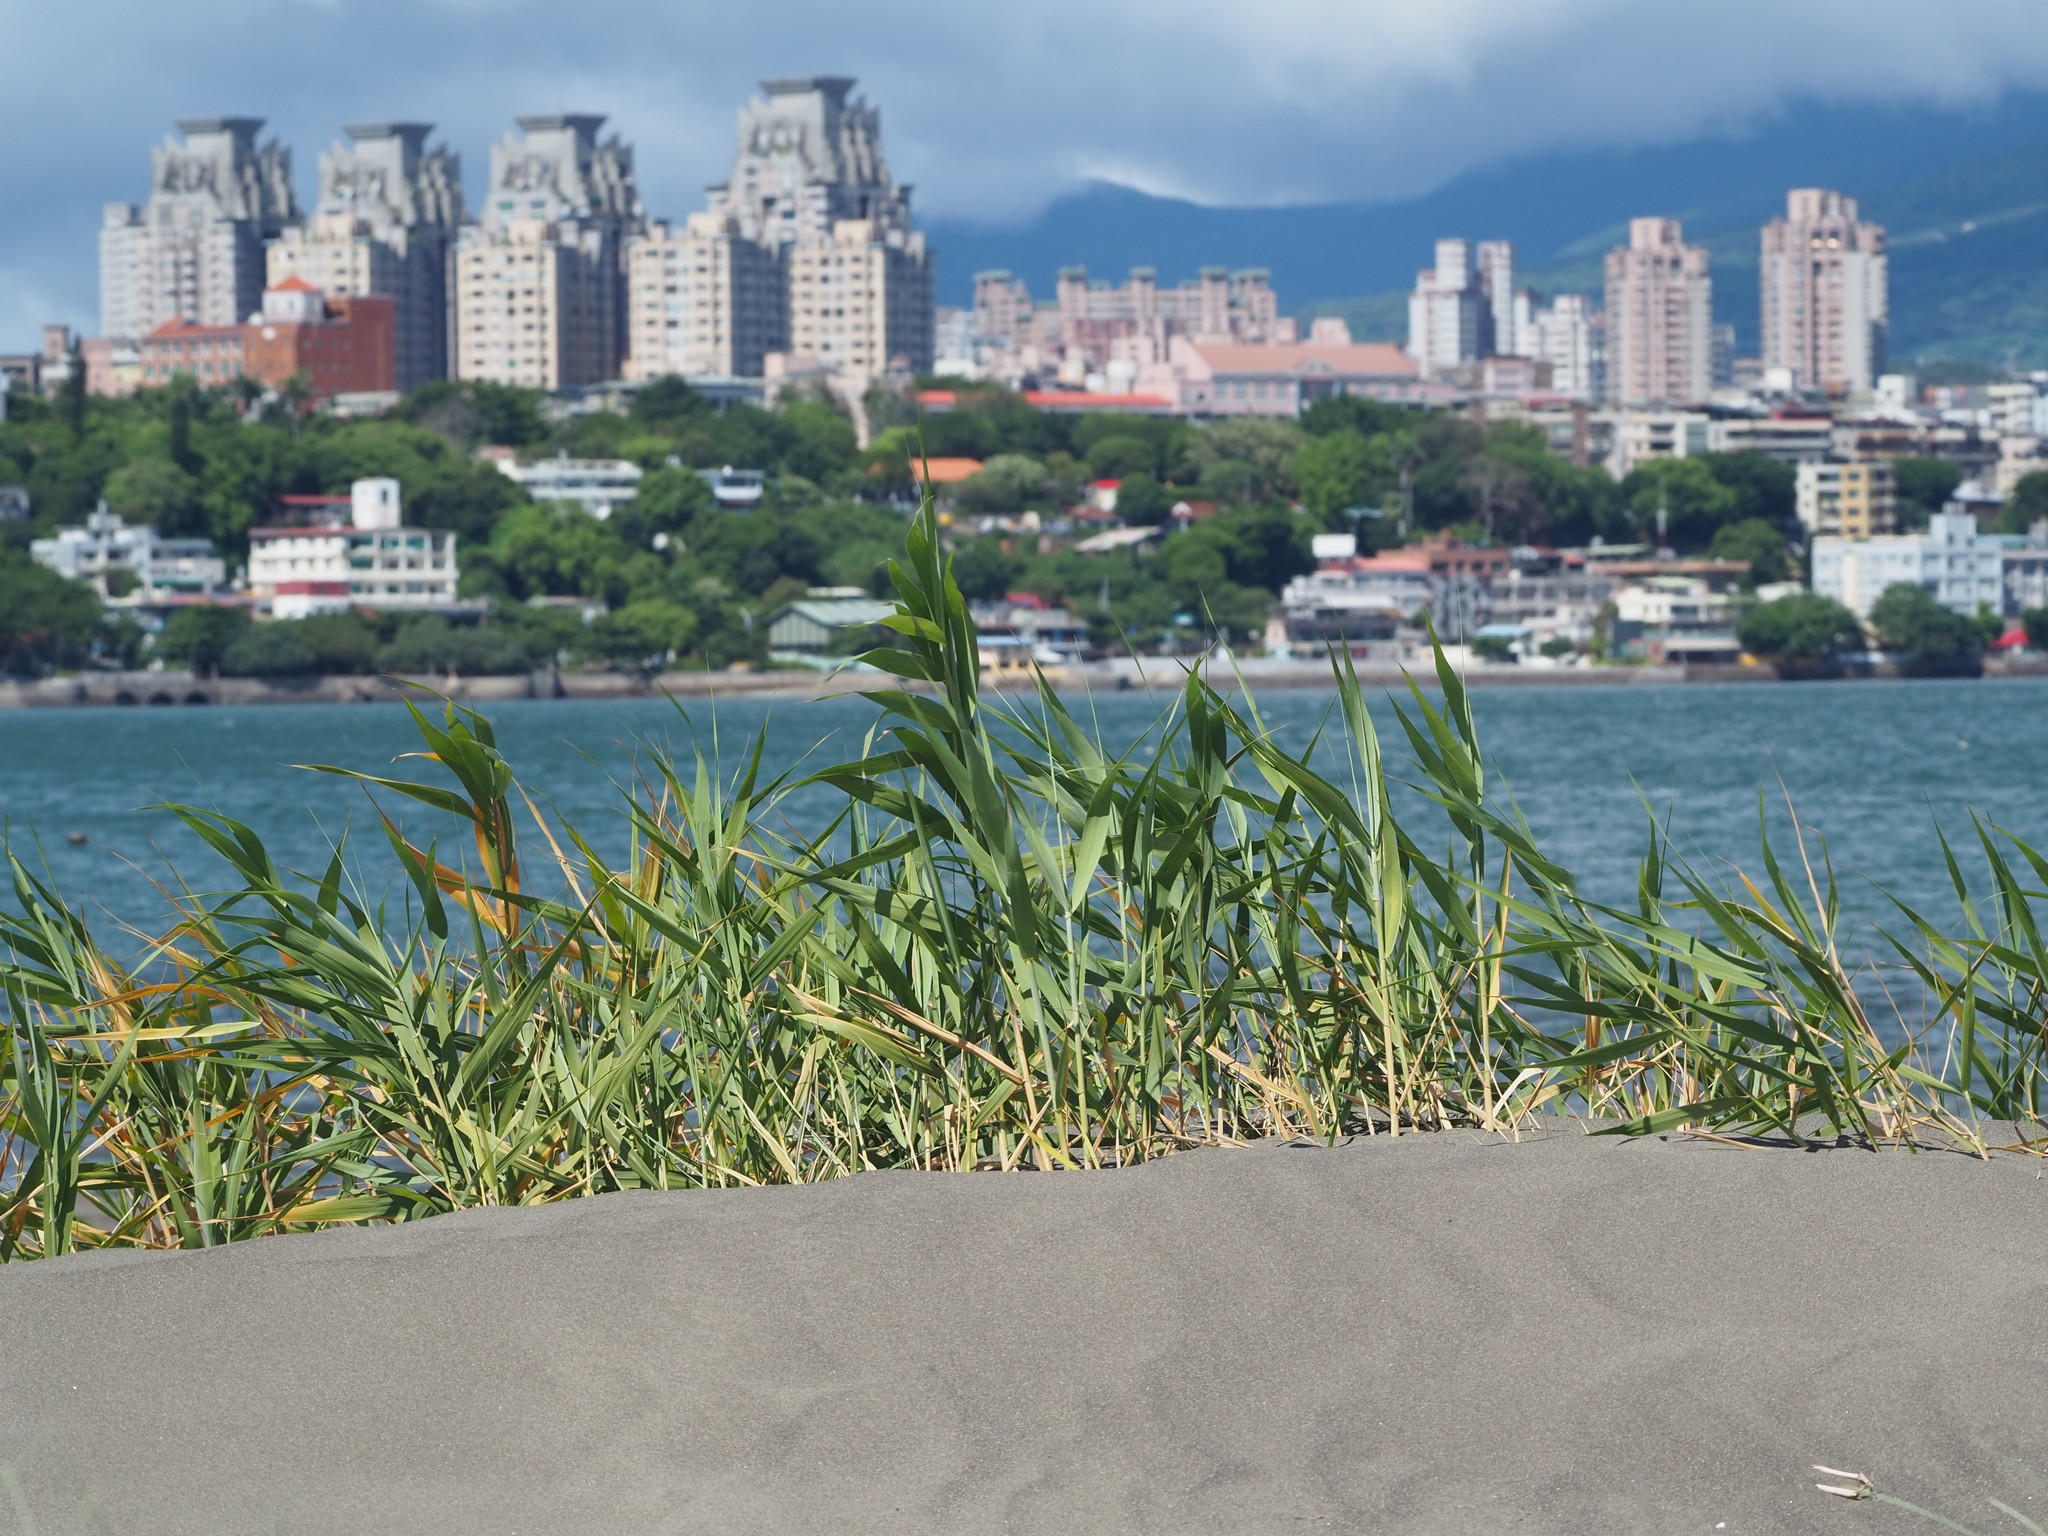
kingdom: Plantae
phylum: Tracheophyta
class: Liliopsida
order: Poales
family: Poaceae
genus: Phragmites
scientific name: Phragmites australis
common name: Common reed
